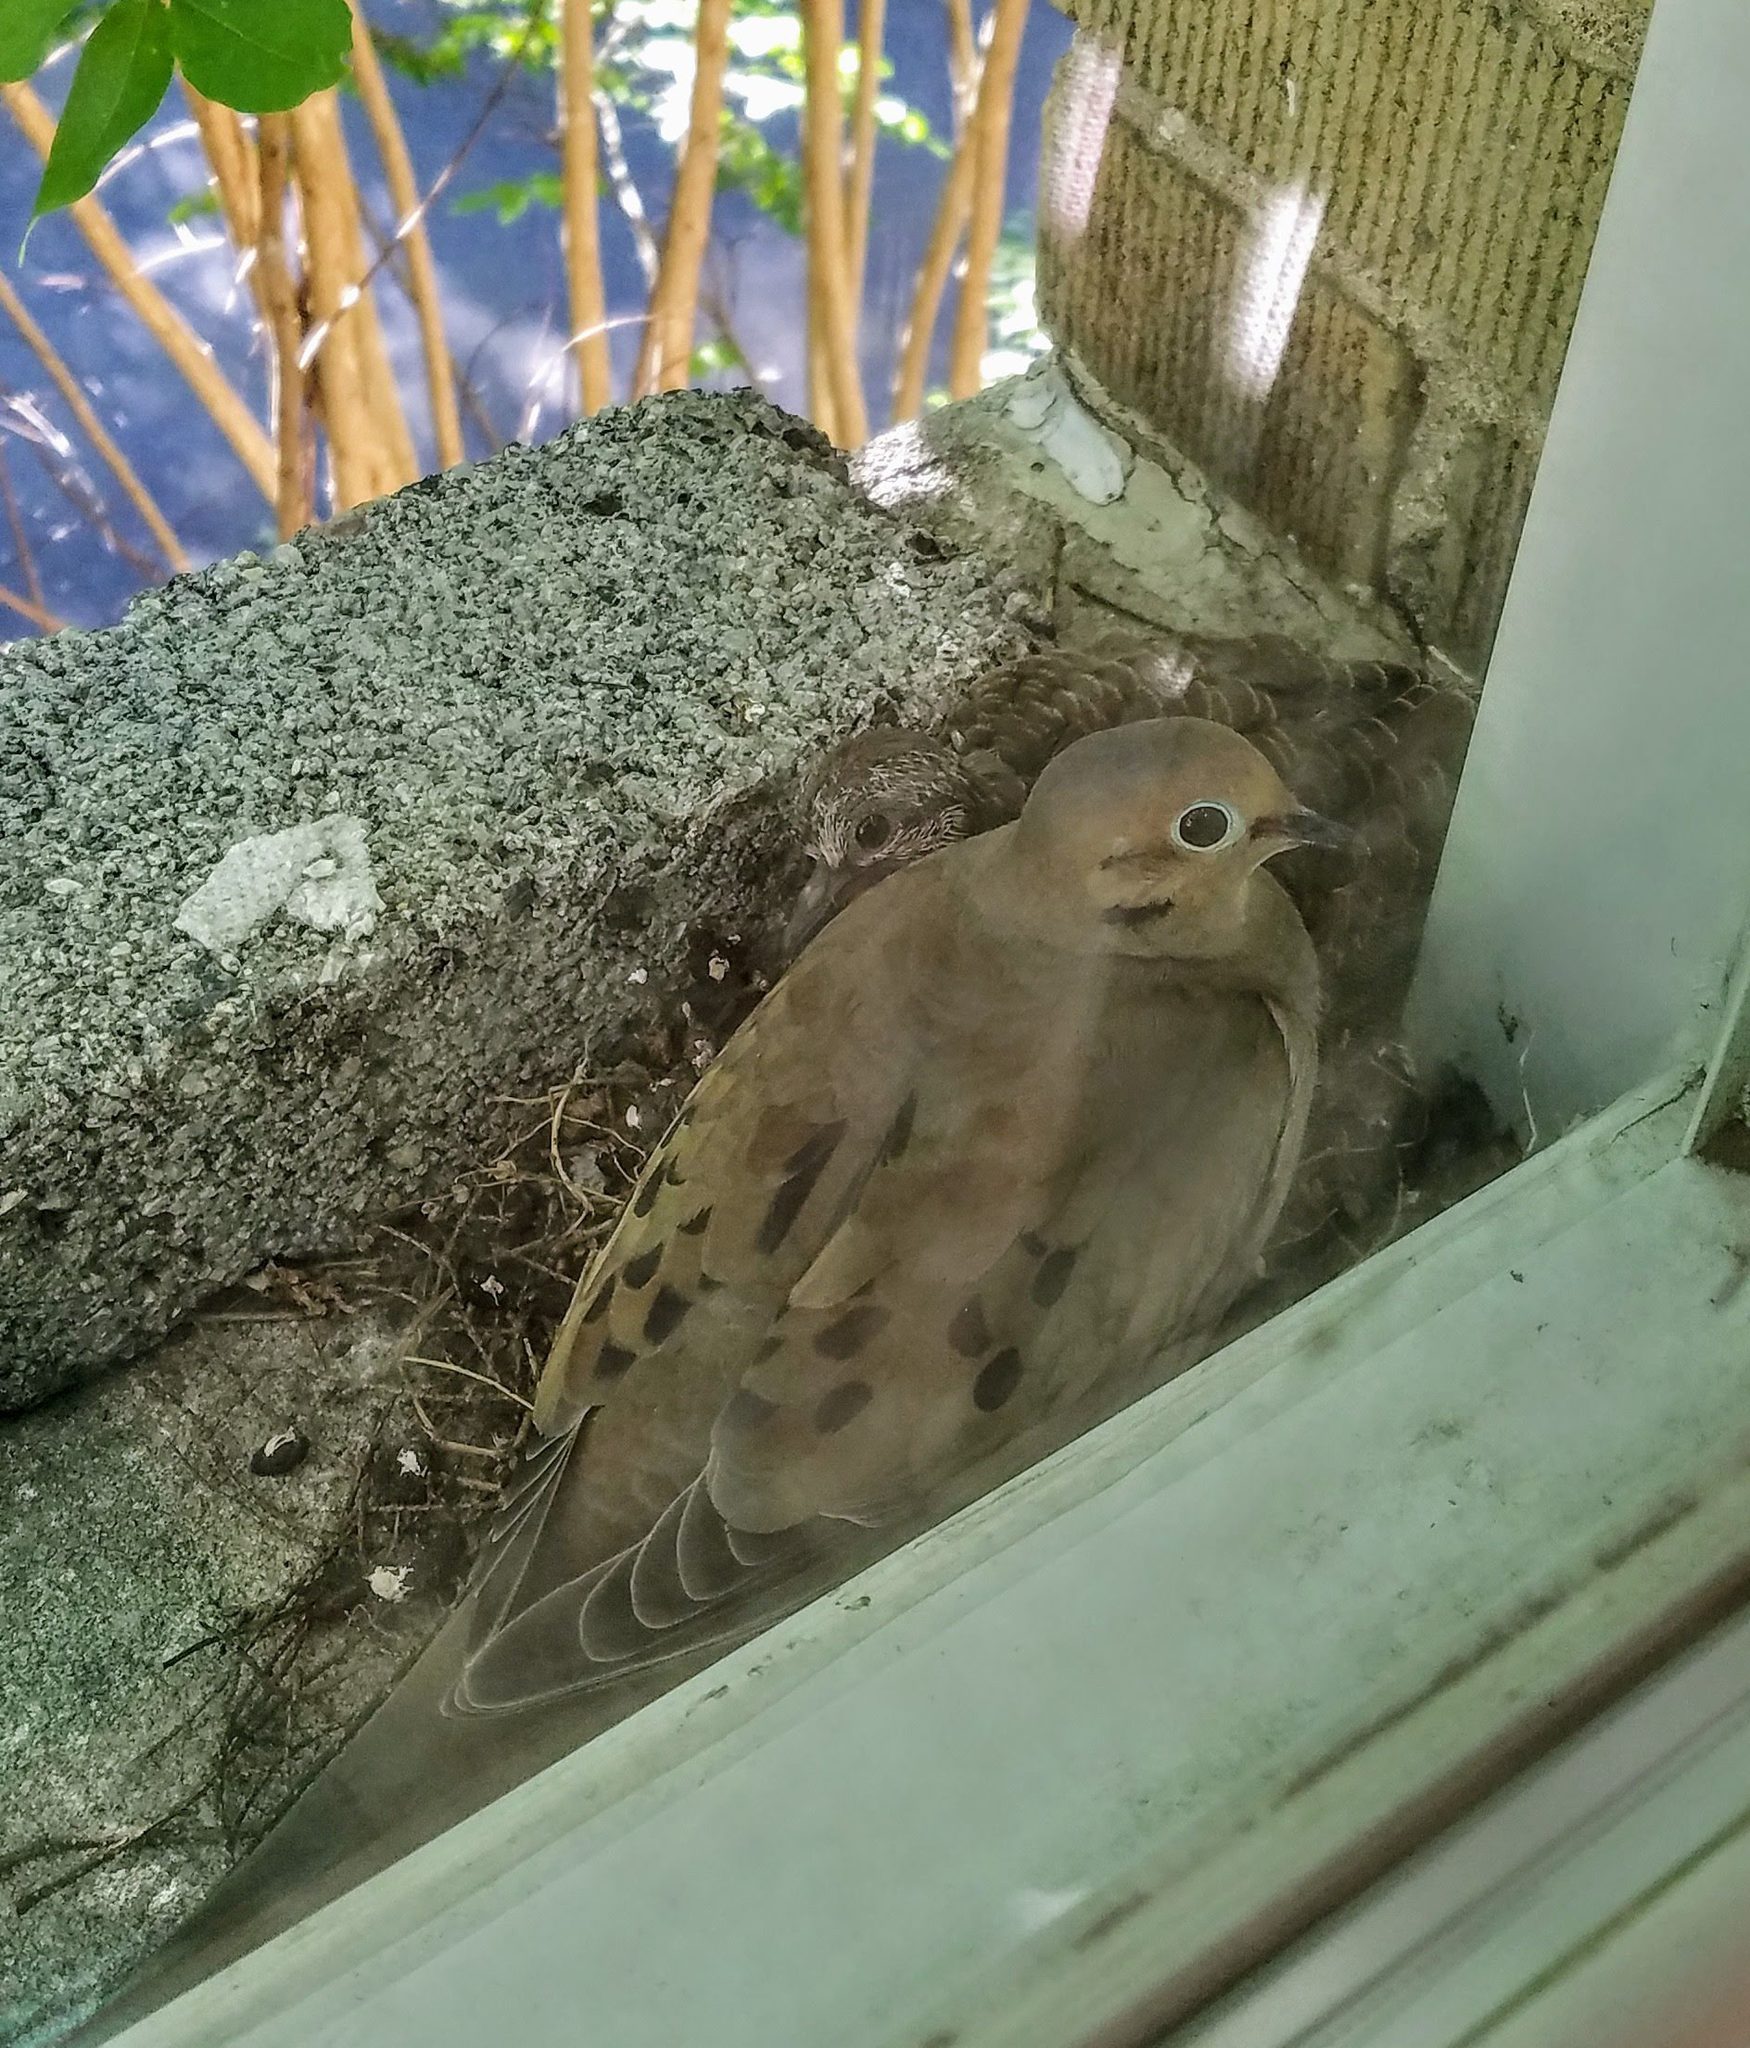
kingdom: Animalia
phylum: Chordata
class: Aves
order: Columbiformes
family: Columbidae
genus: Zenaida
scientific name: Zenaida macroura
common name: Mourning dove
